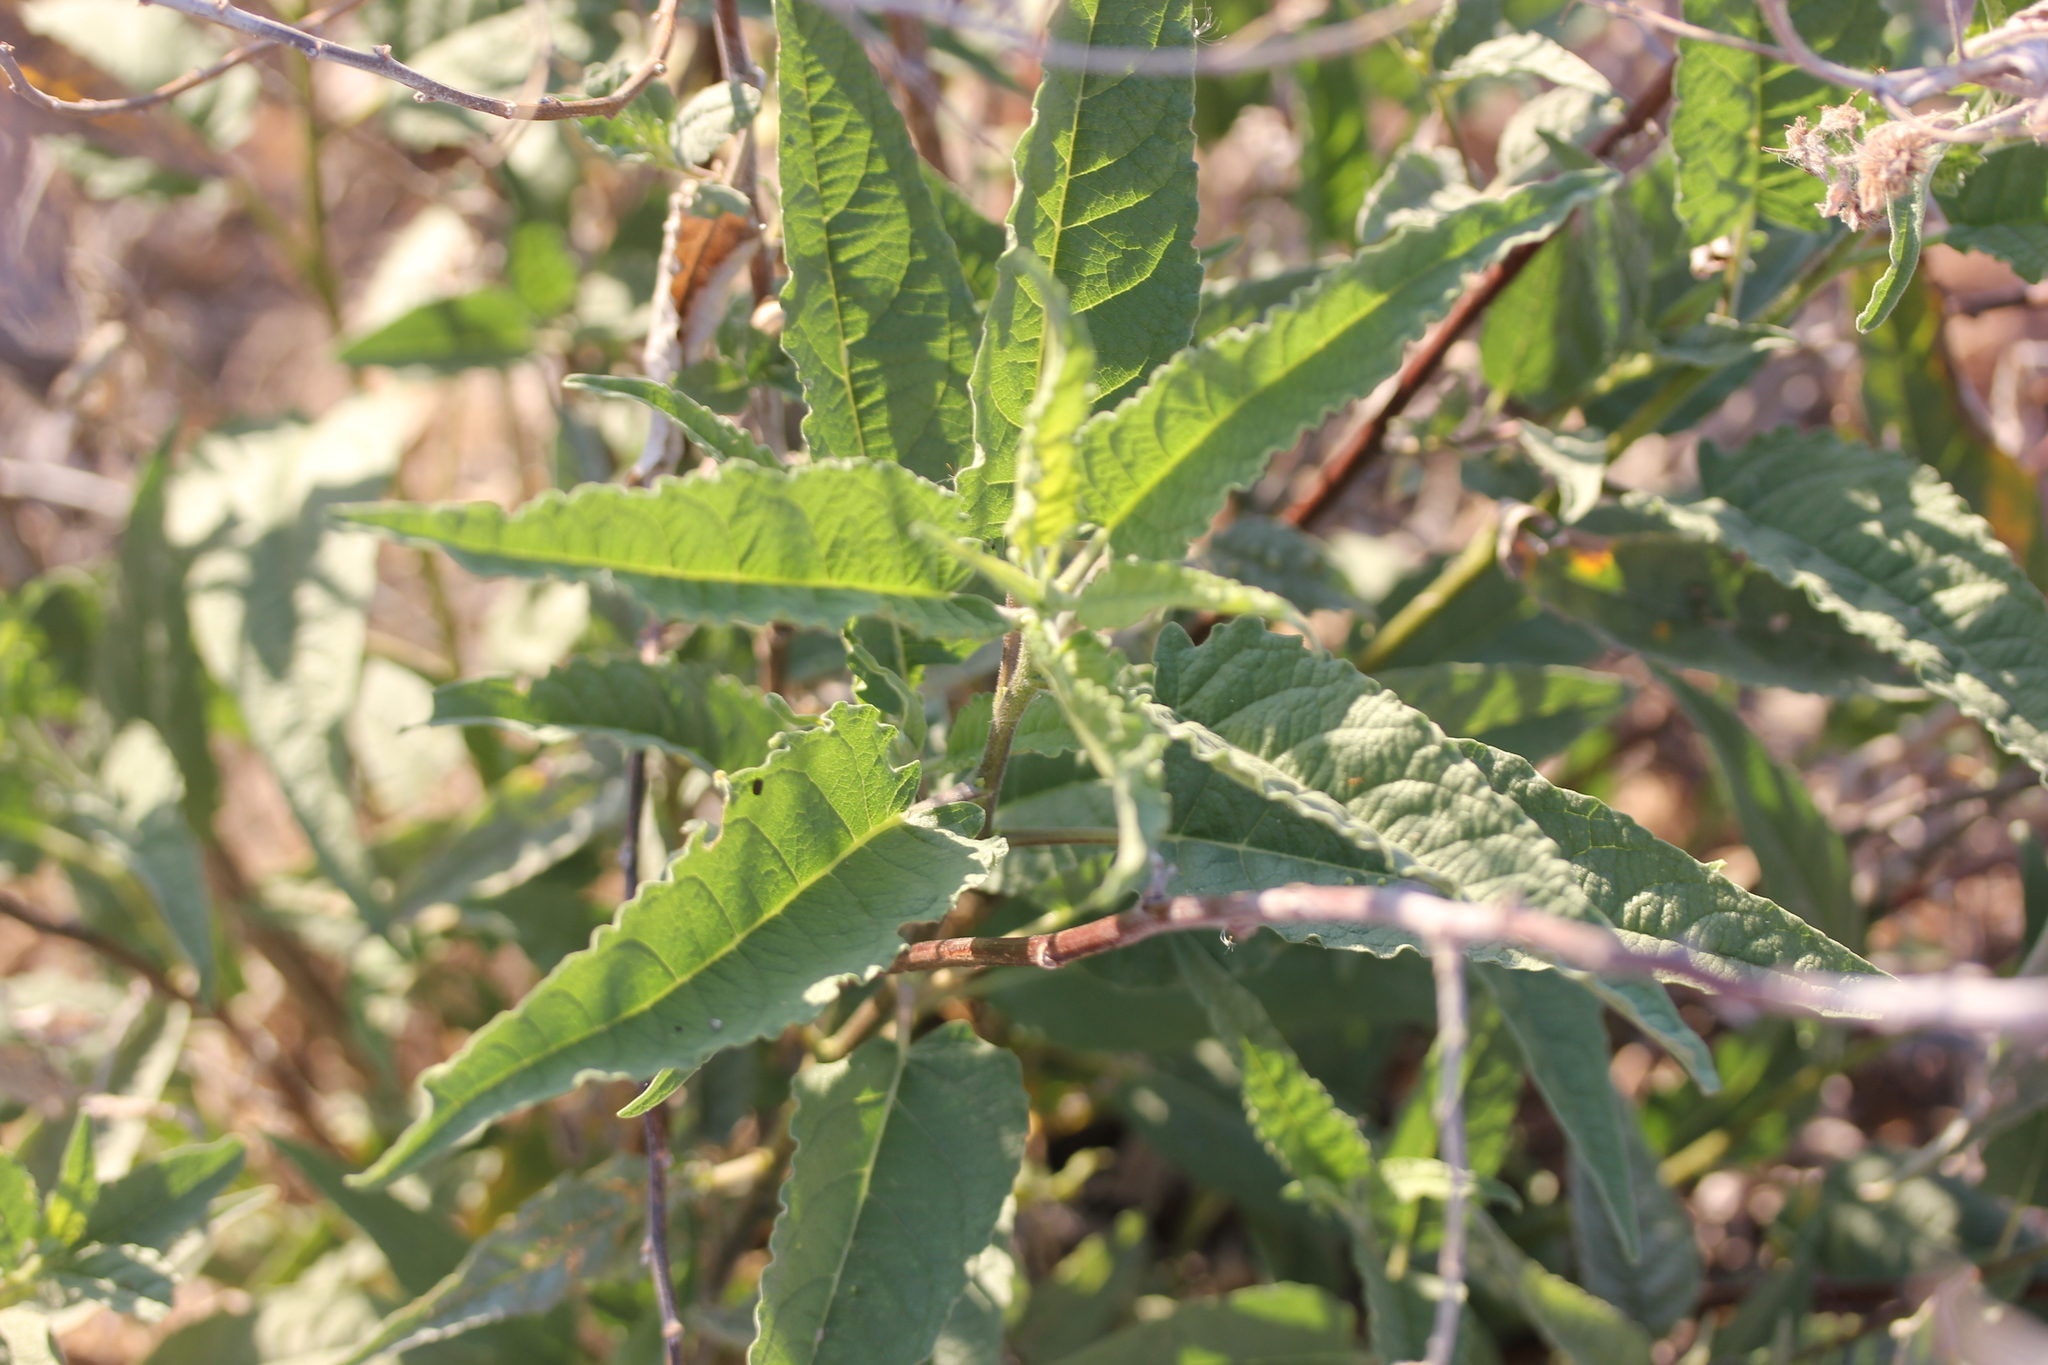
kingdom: Plantae
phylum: Tracheophyta
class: Magnoliopsida
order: Asterales
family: Asteraceae
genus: Ambrosia
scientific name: Ambrosia ambrosioides
